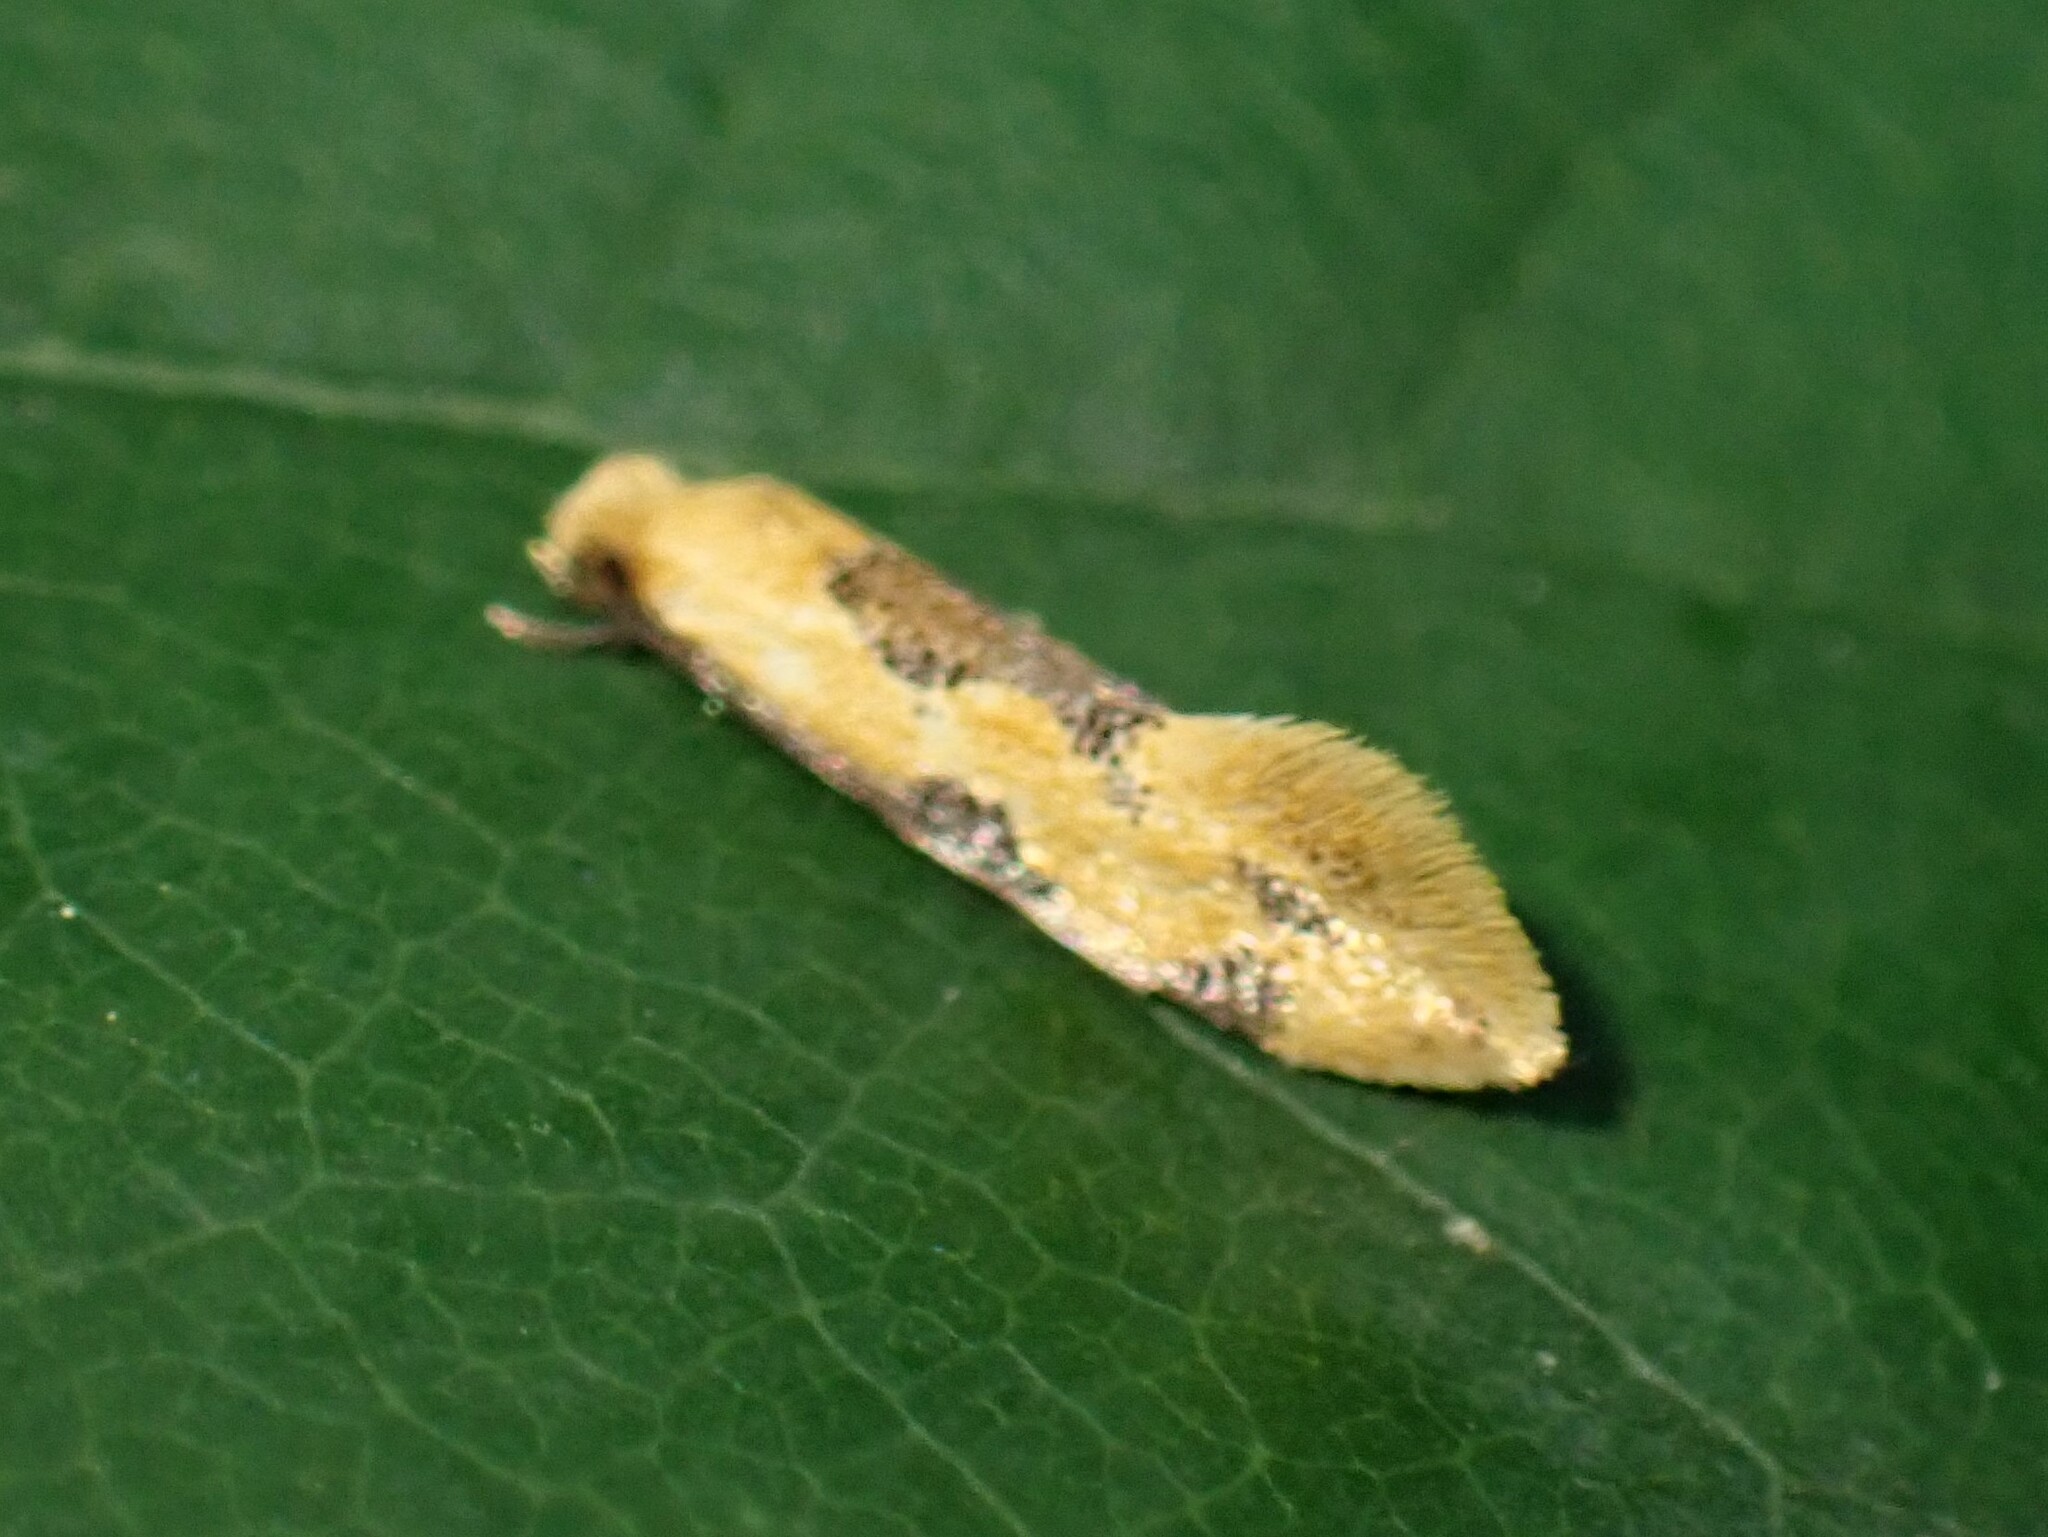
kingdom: Animalia
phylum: Arthropoda
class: Insecta
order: Lepidoptera
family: Meessiidae
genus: Hybroma
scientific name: Hybroma servulella
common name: Yellow wave moth
